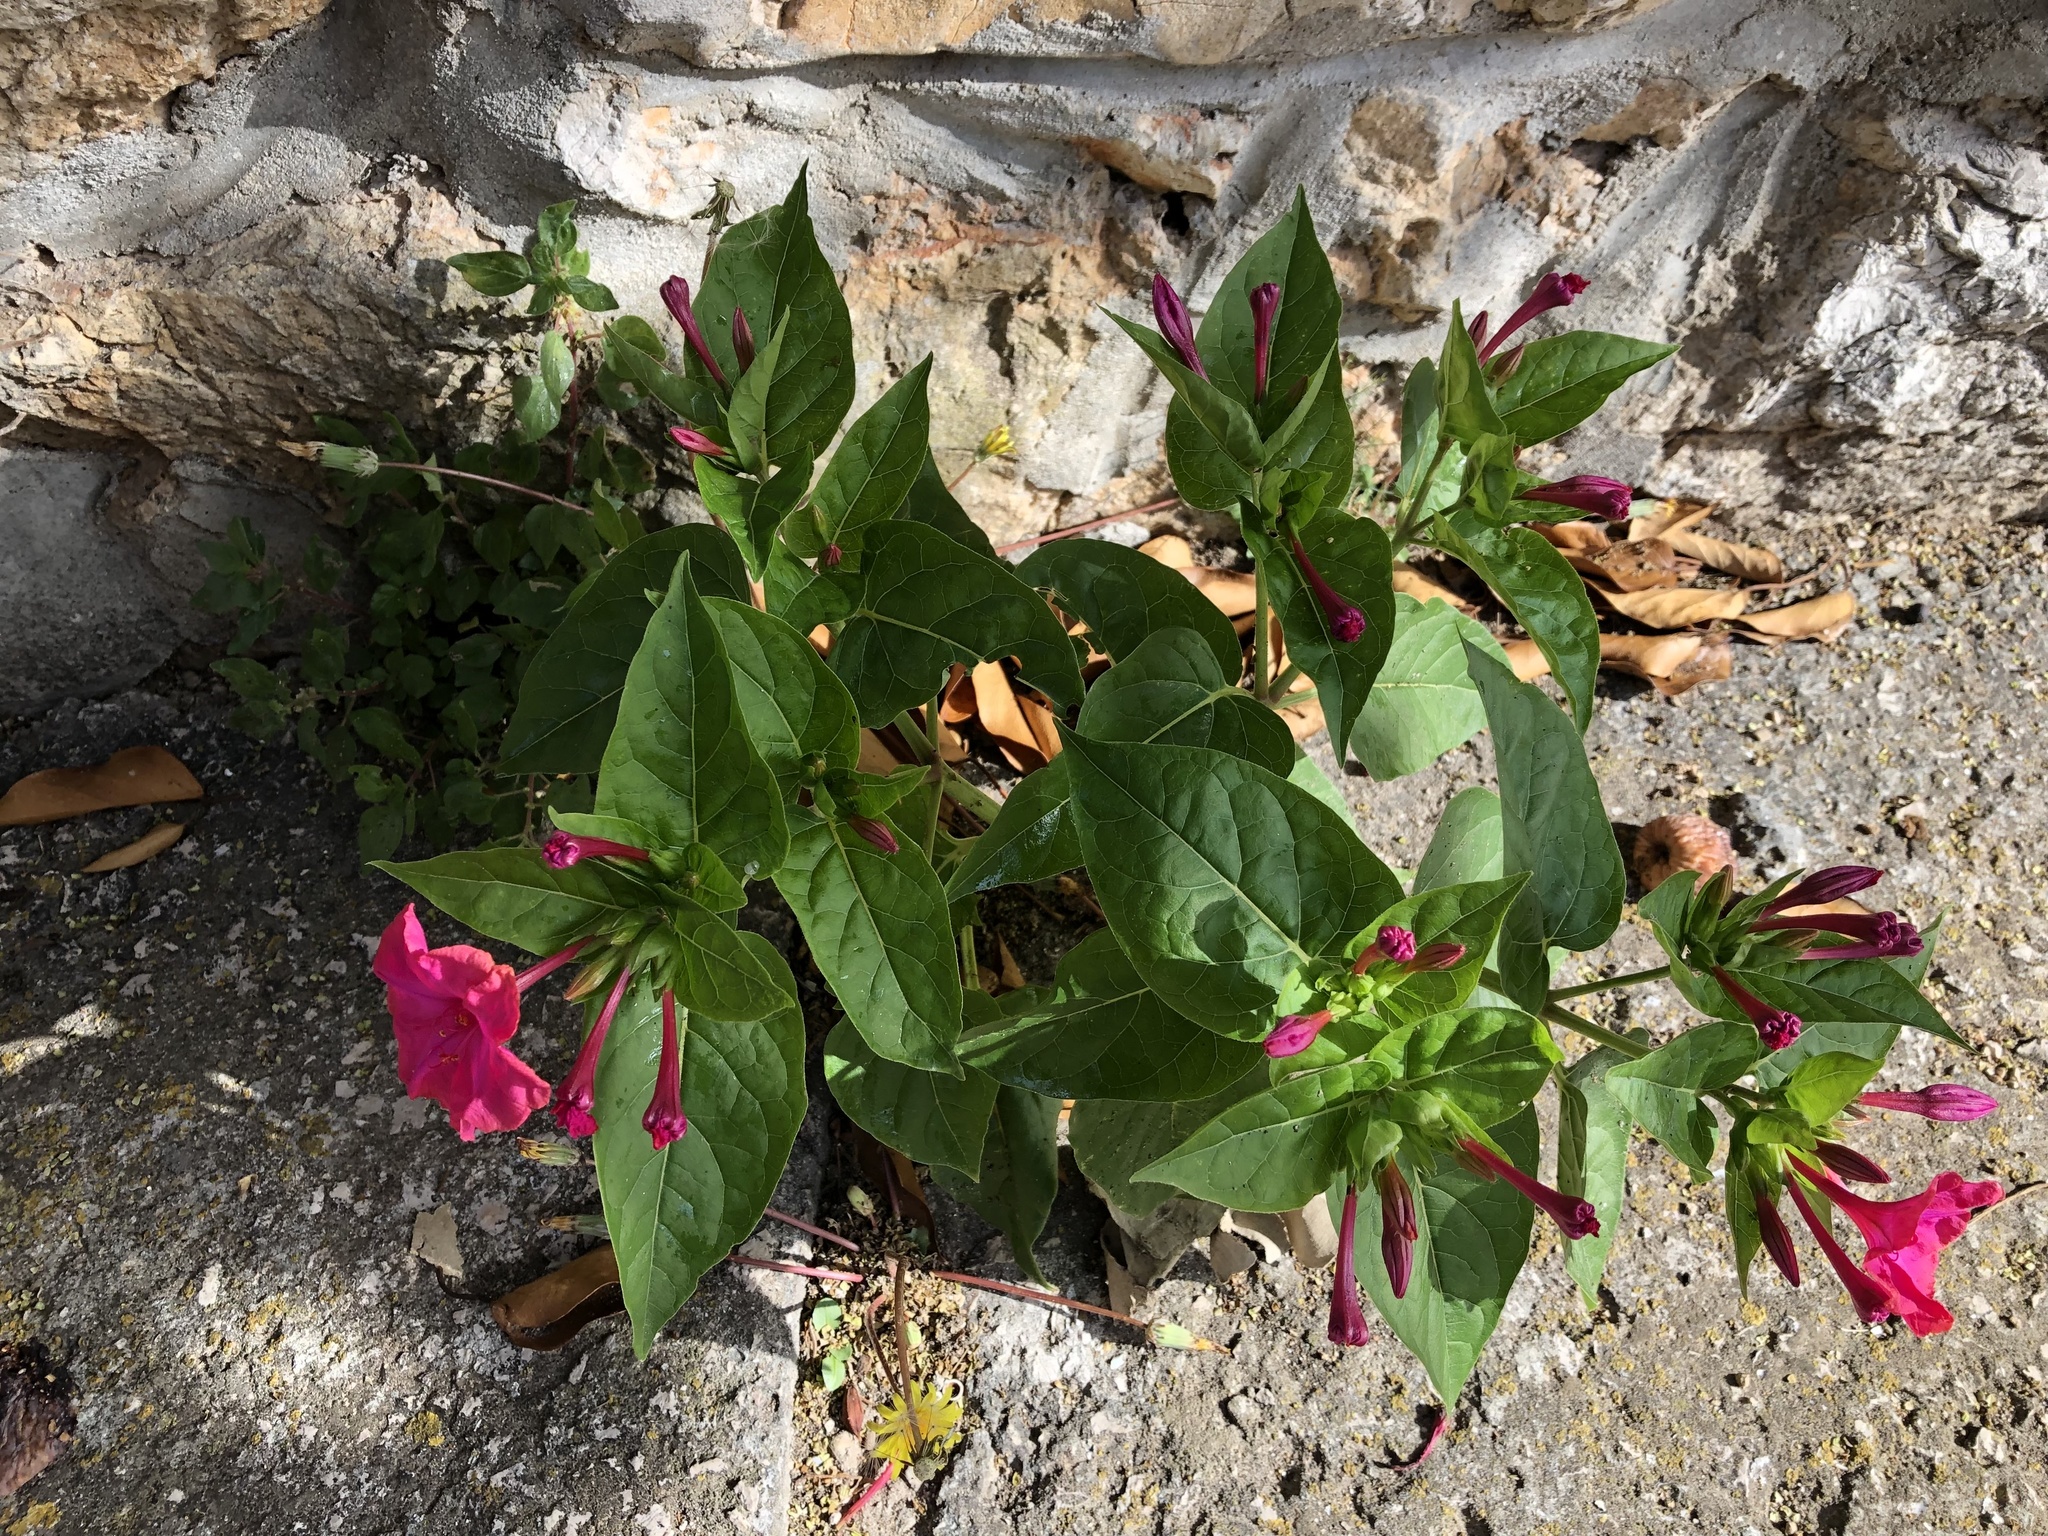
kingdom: Plantae
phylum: Tracheophyta
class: Magnoliopsida
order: Caryophyllales
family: Nyctaginaceae
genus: Mirabilis
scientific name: Mirabilis jalapa
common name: Marvel-of-peru
